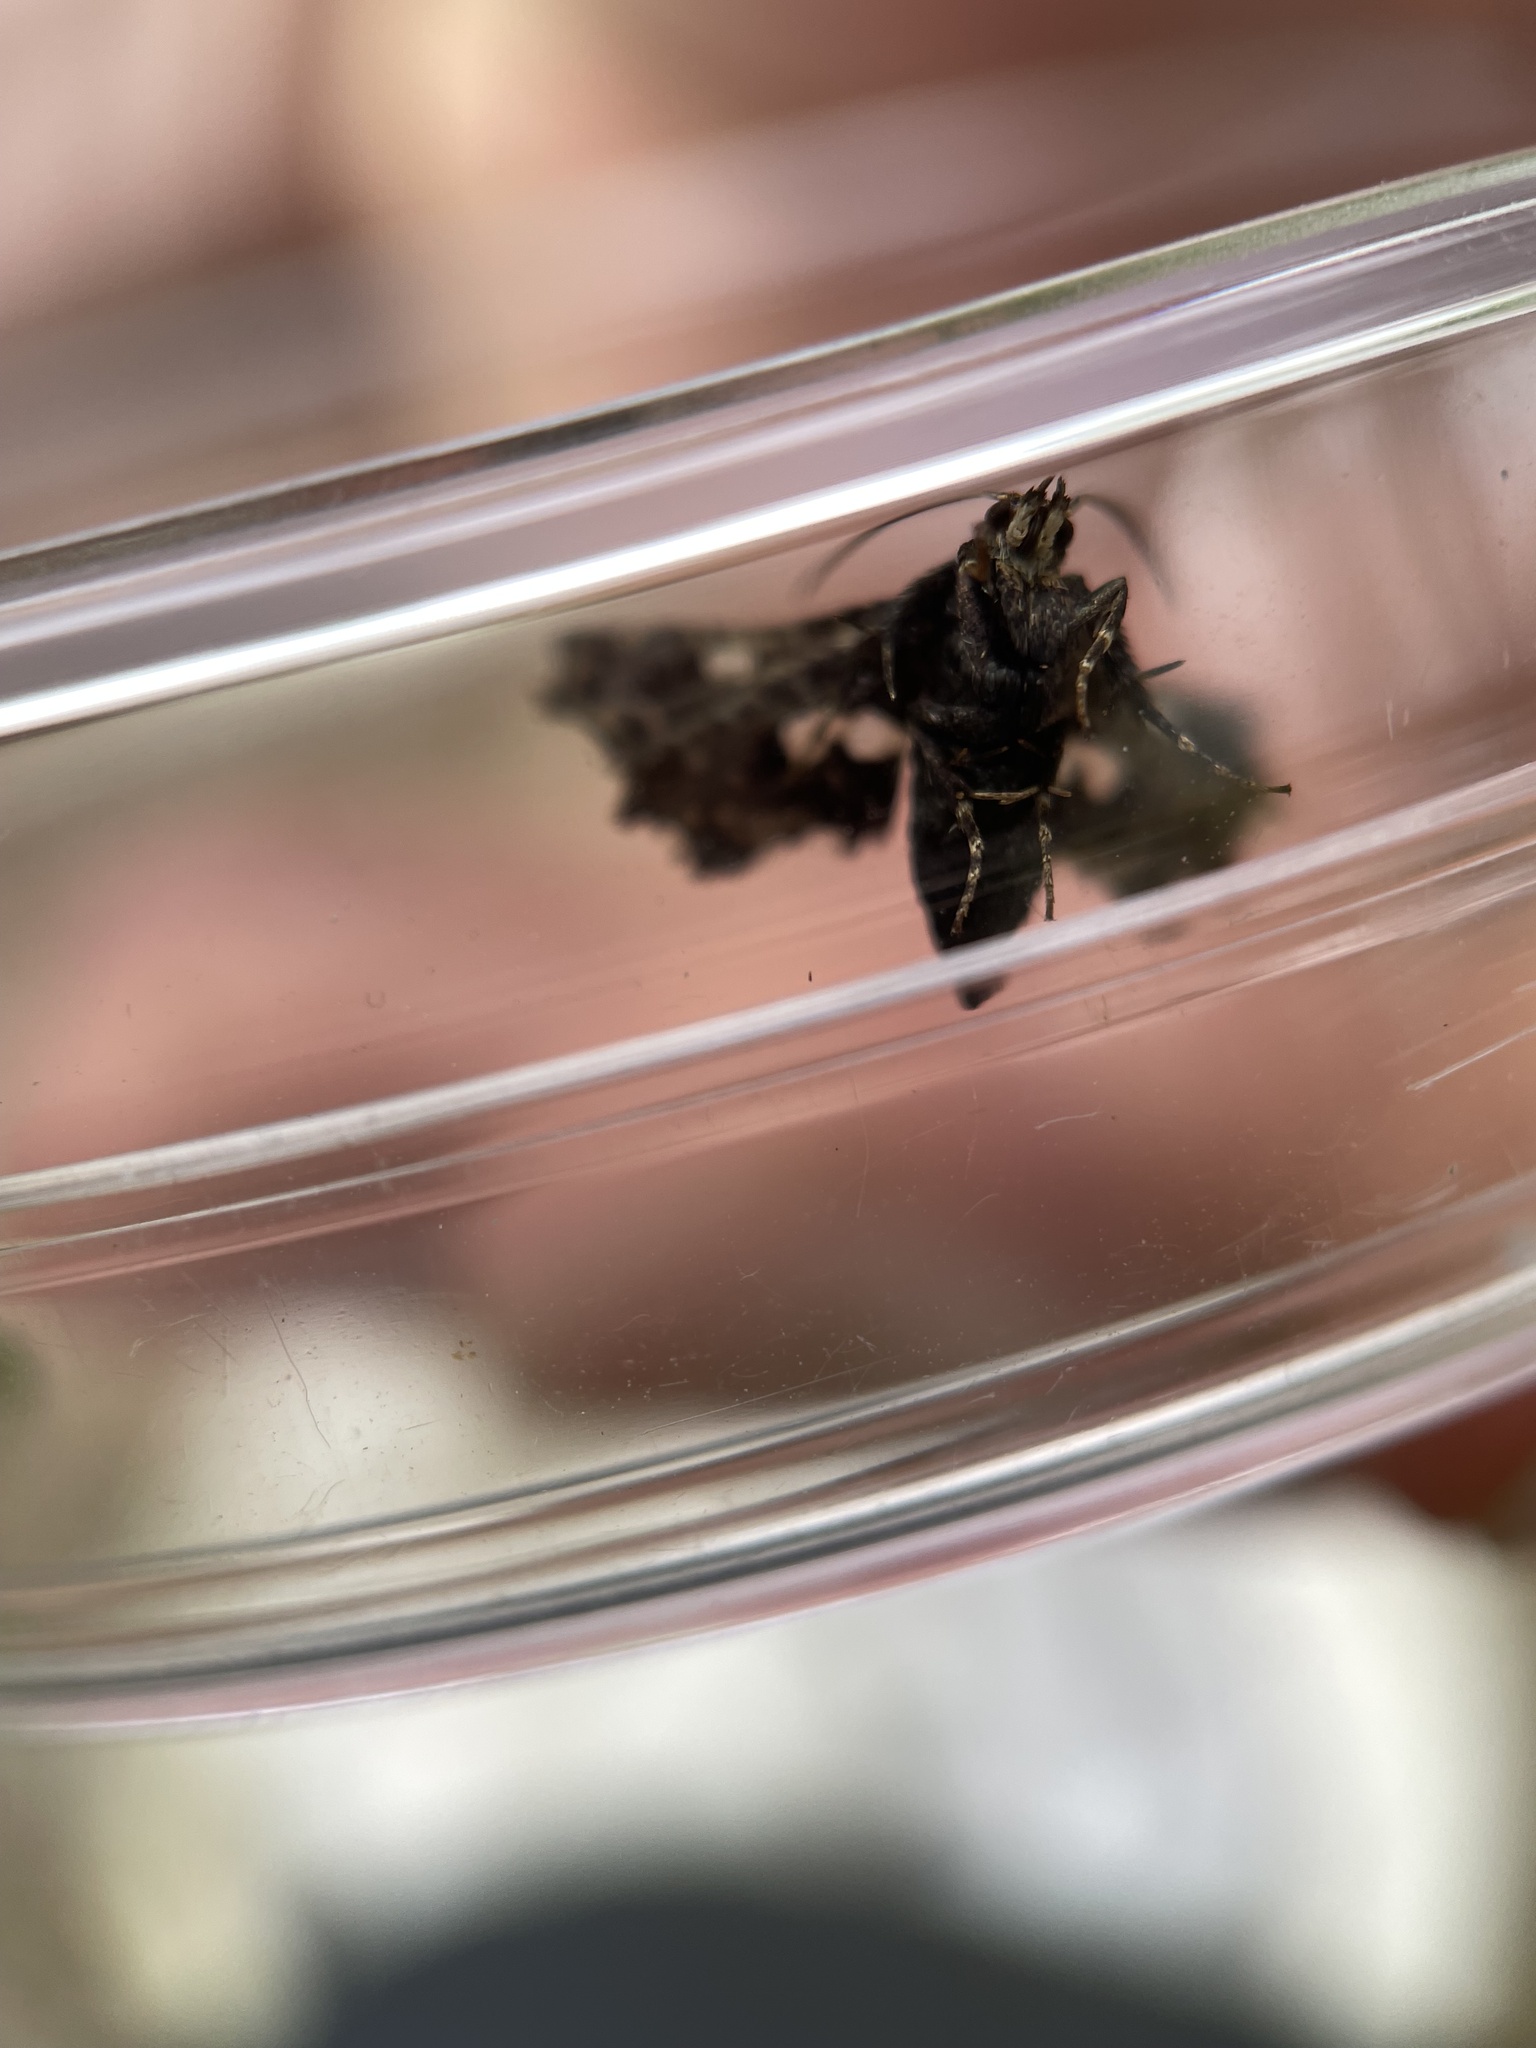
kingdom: Animalia
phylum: Arthropoda
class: Insecta
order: Lepidoptera
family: Thyrididae
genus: Thyris
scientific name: Thyris maculata
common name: Spotted thyris moth
